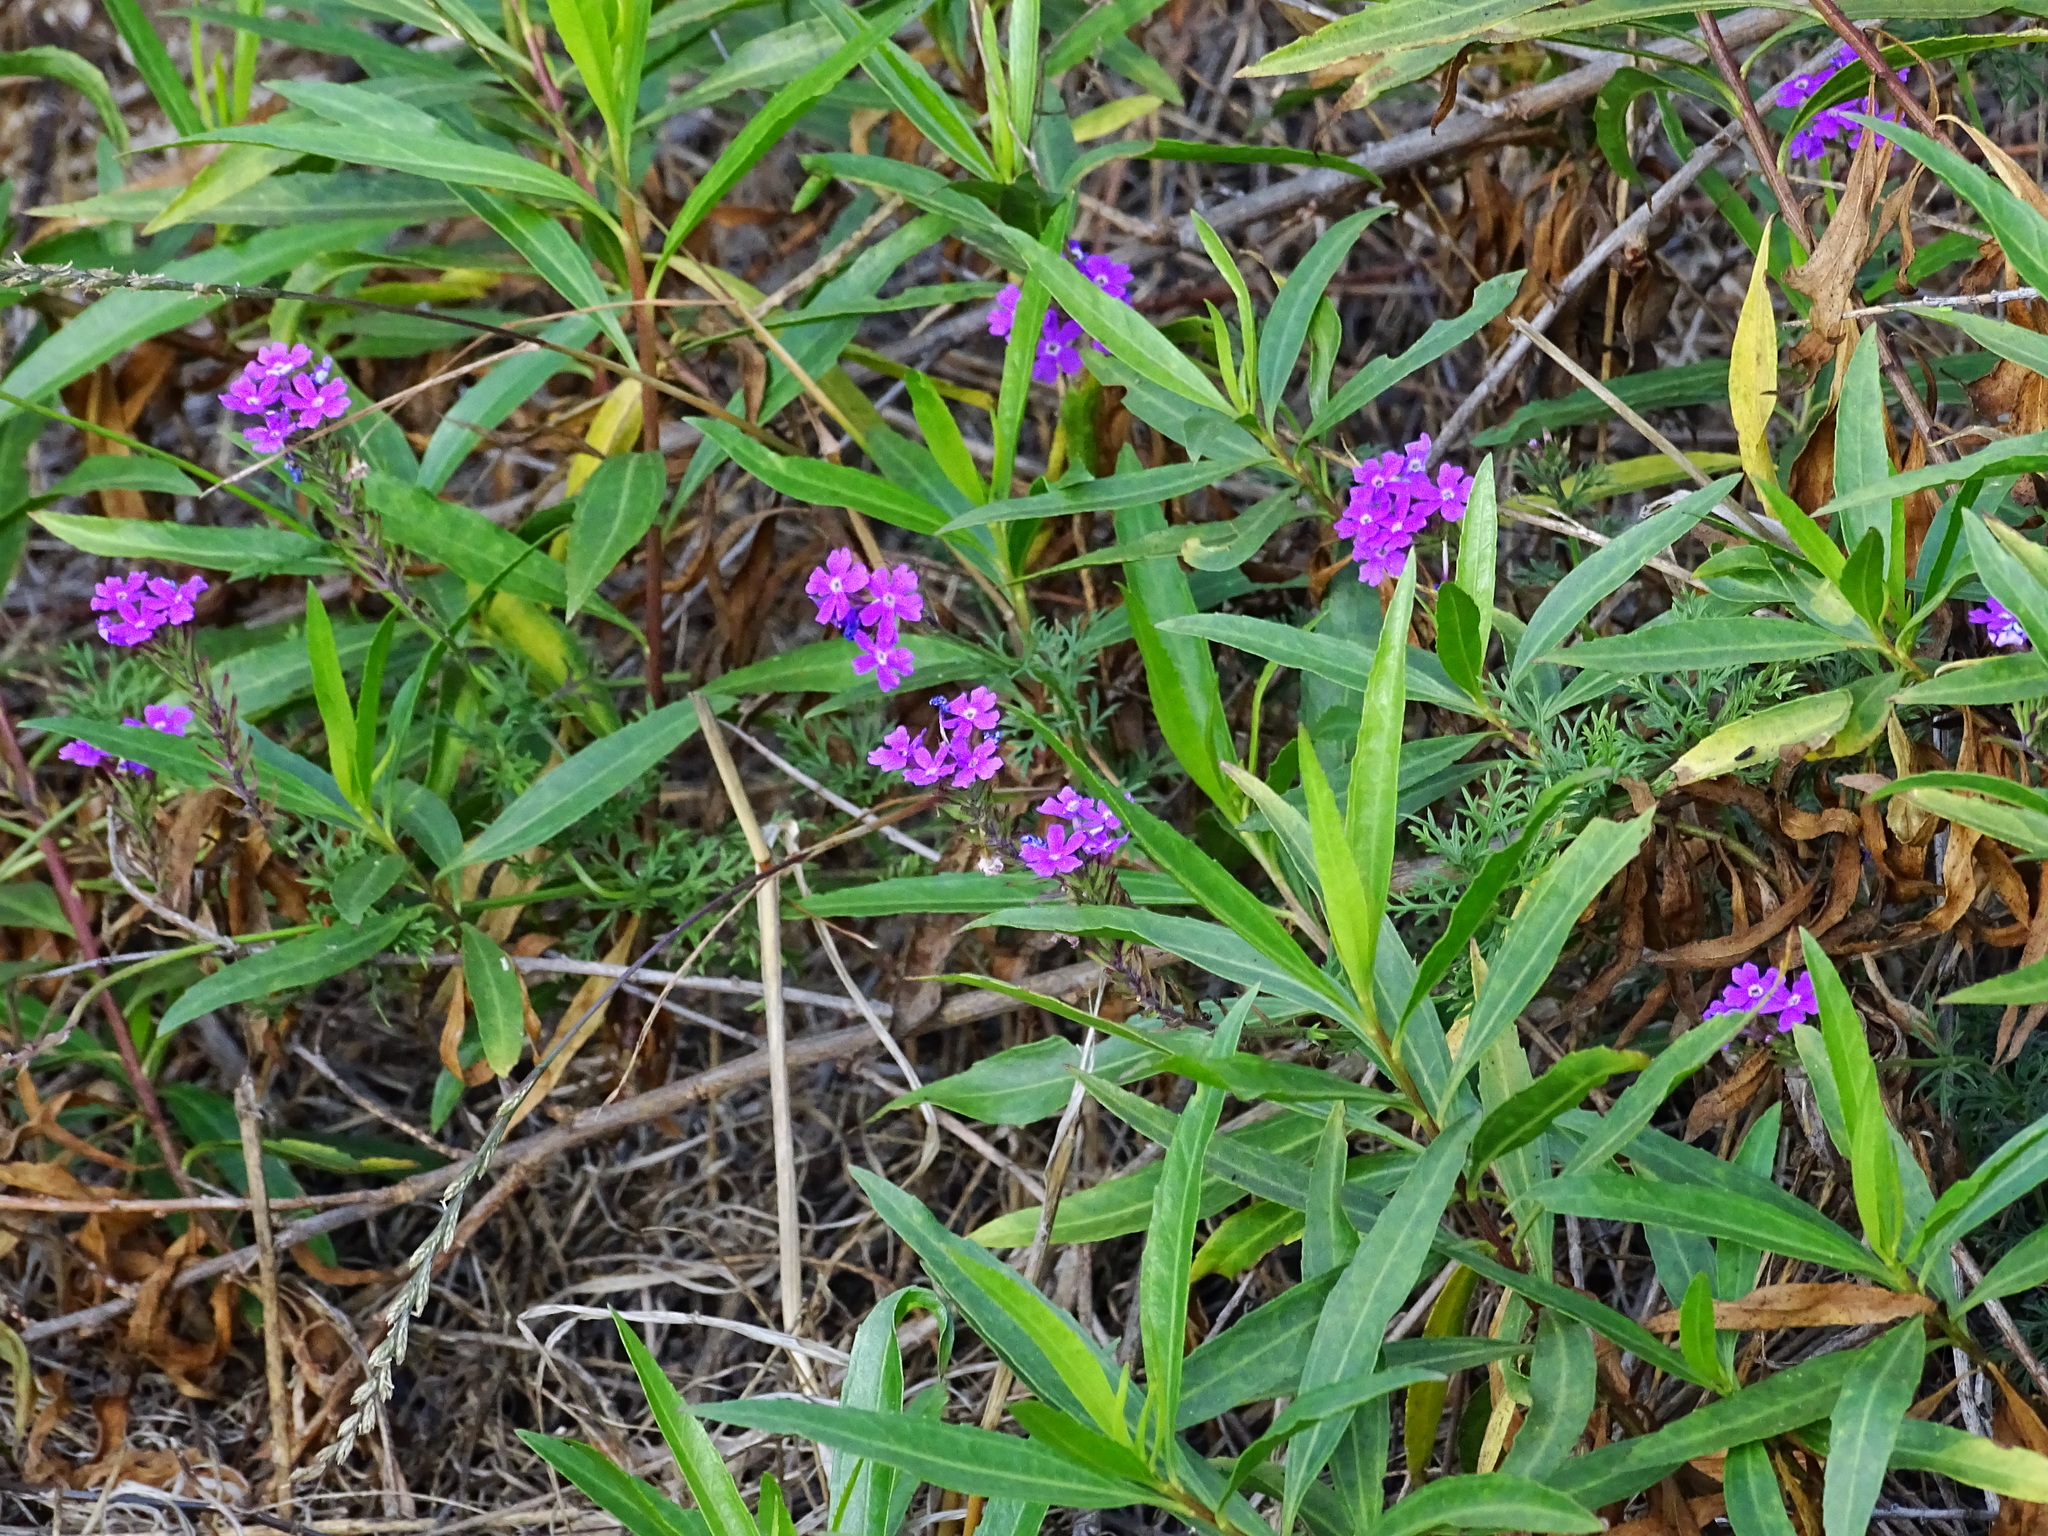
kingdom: Plantae
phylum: Tracheophyta
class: Magnoliopsida
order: Lamiales
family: Verbenaceae
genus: Verbena
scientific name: Verbena
